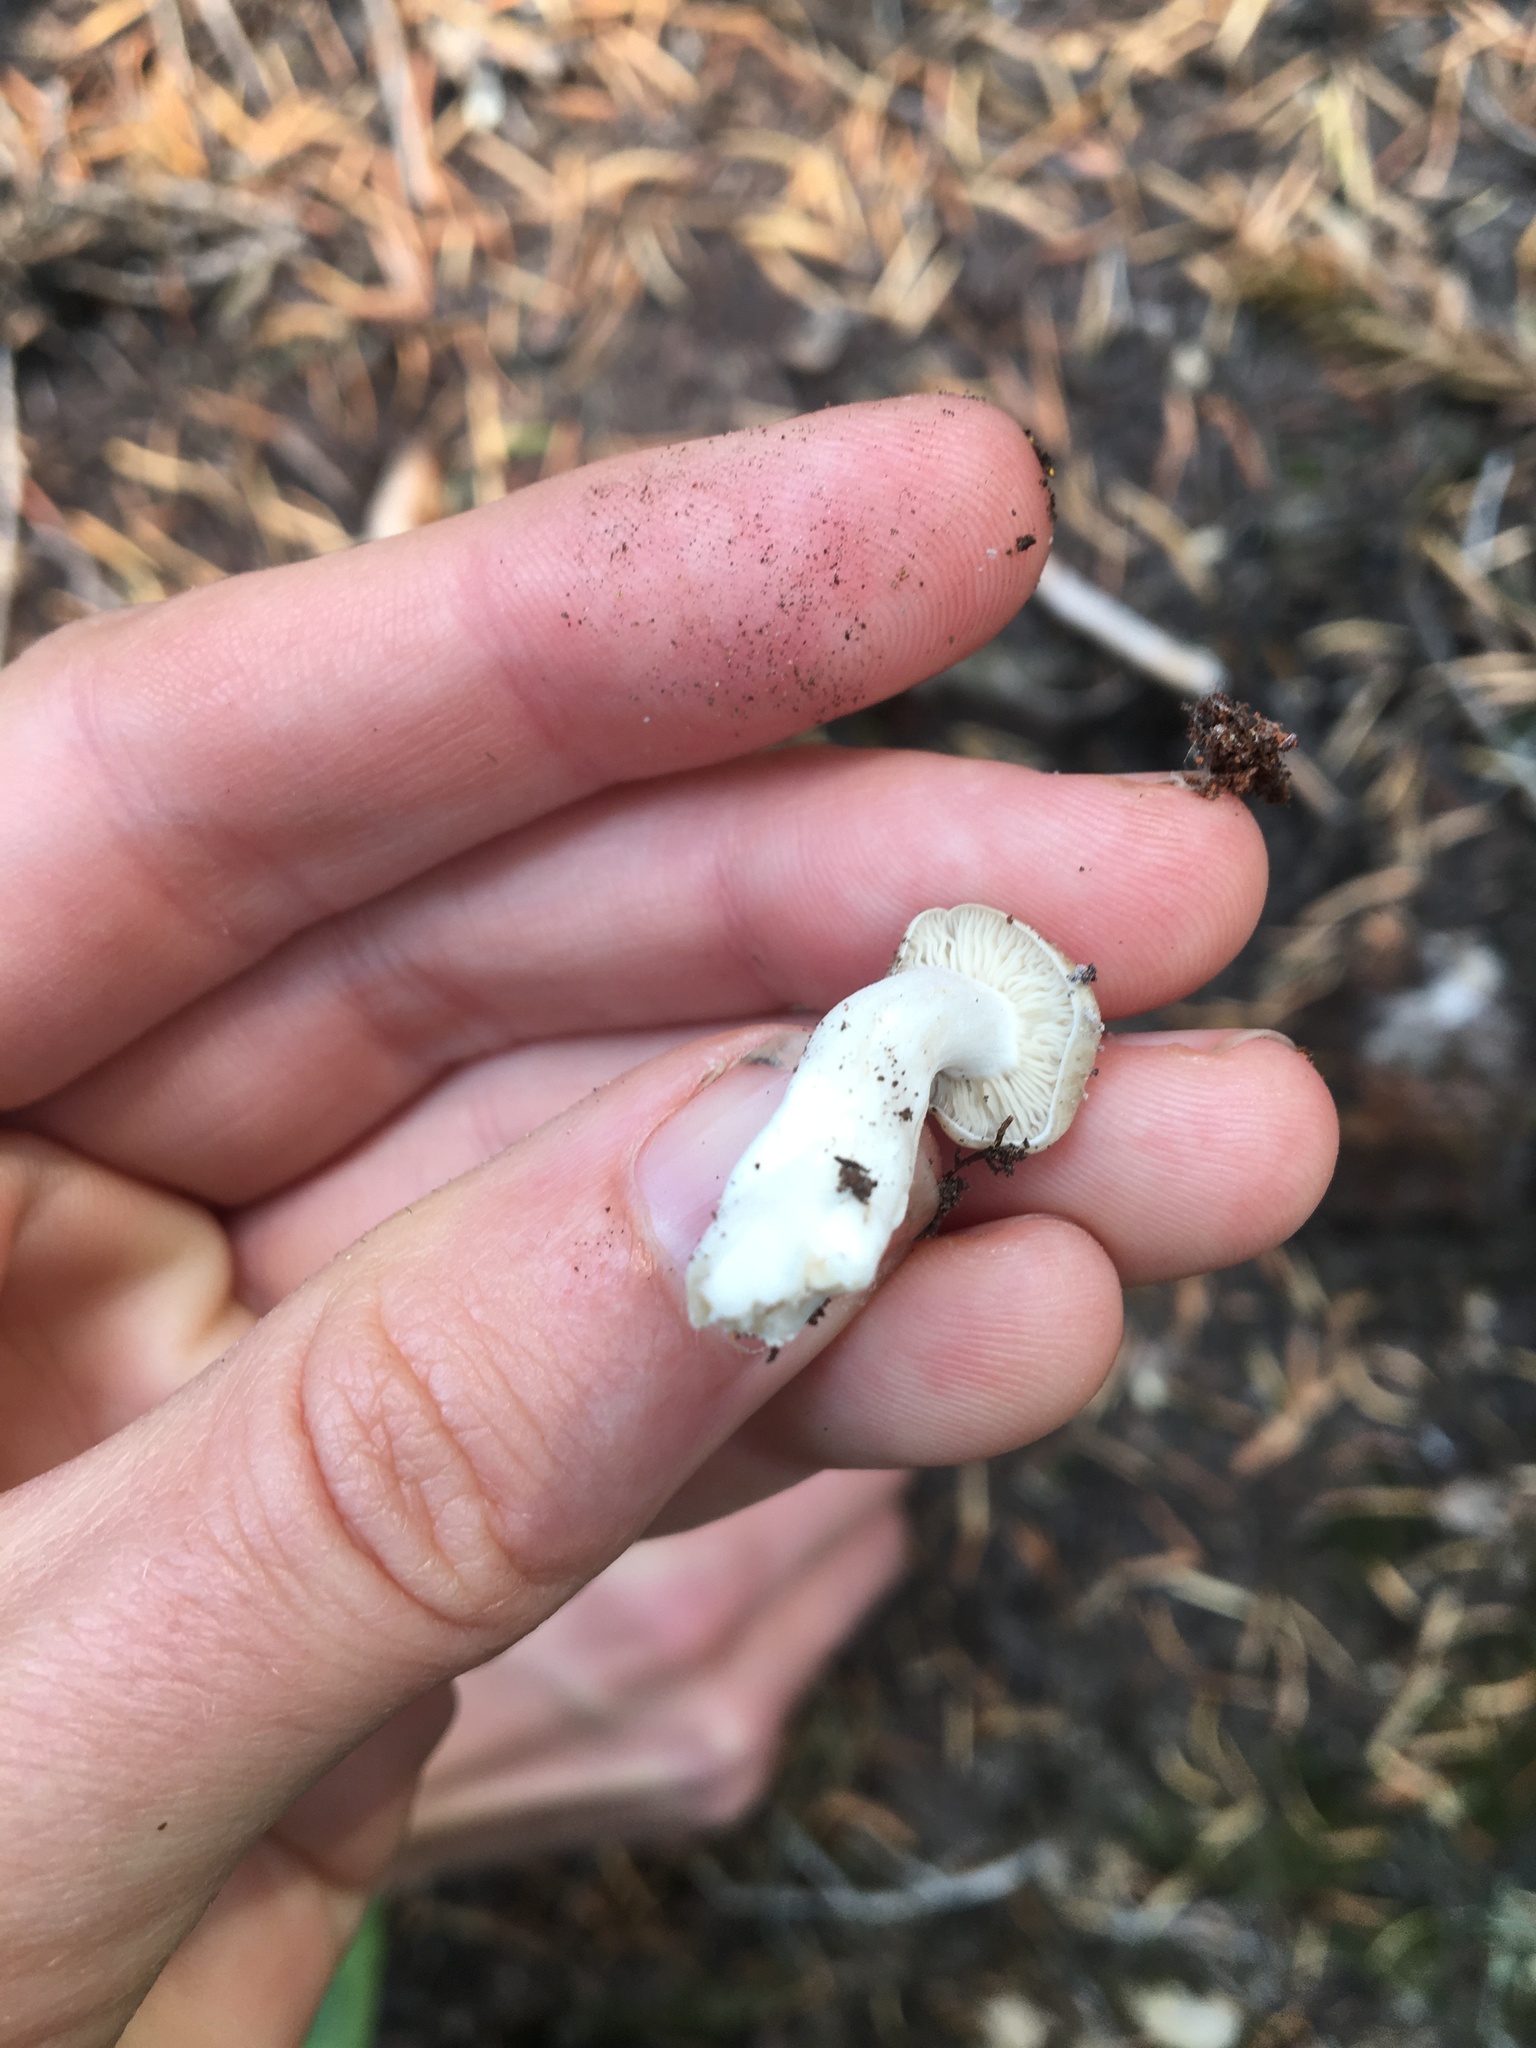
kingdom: Fungi
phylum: Basidiomycota
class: Agaricomycetes
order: Agaricales
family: Lyophyllaceae
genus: Lyophyllum
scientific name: Lyophyllum decastes
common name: Clustered domecap
